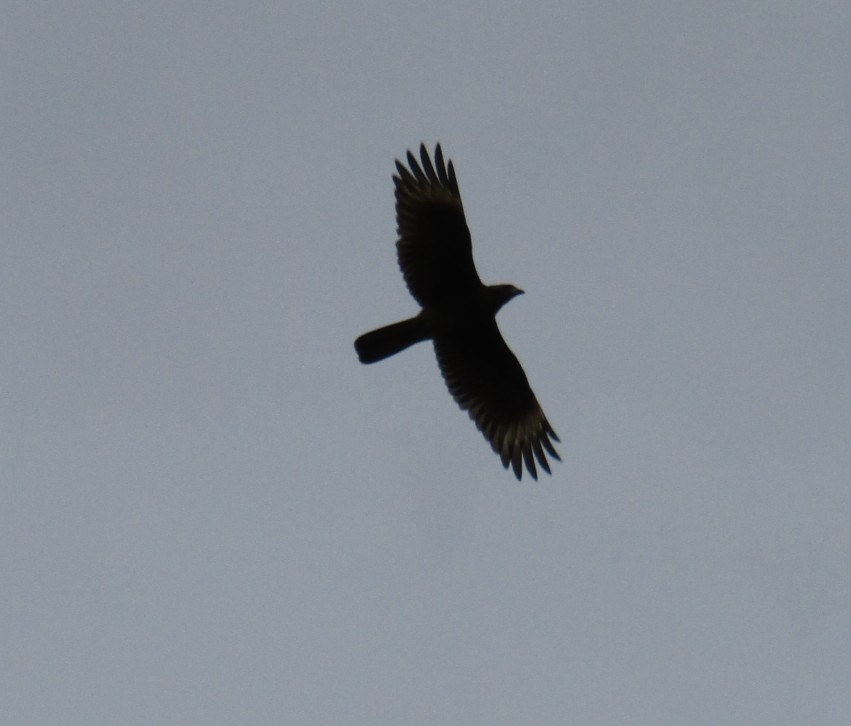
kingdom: Animalia
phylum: Chordata
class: Aves
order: Falconiformes
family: Falconidae
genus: Daptrius
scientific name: Daptrius
